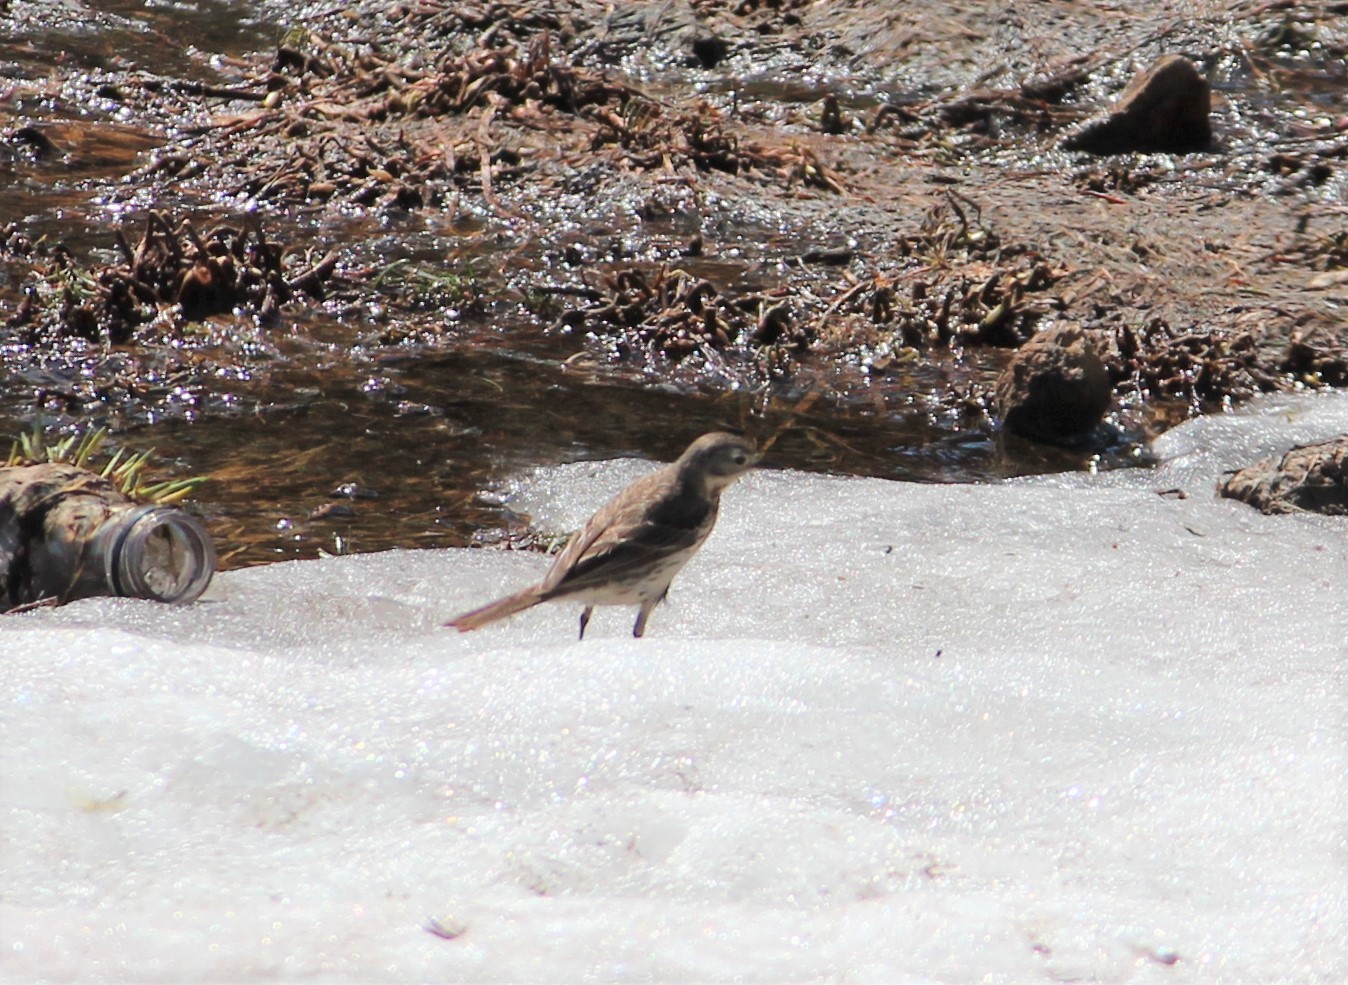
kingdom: Animalia
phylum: Chordata
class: Aves
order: Passeriformes
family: Motacillidae
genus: Anthus
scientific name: Anthus rubescens
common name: Buff-bellied pipit
